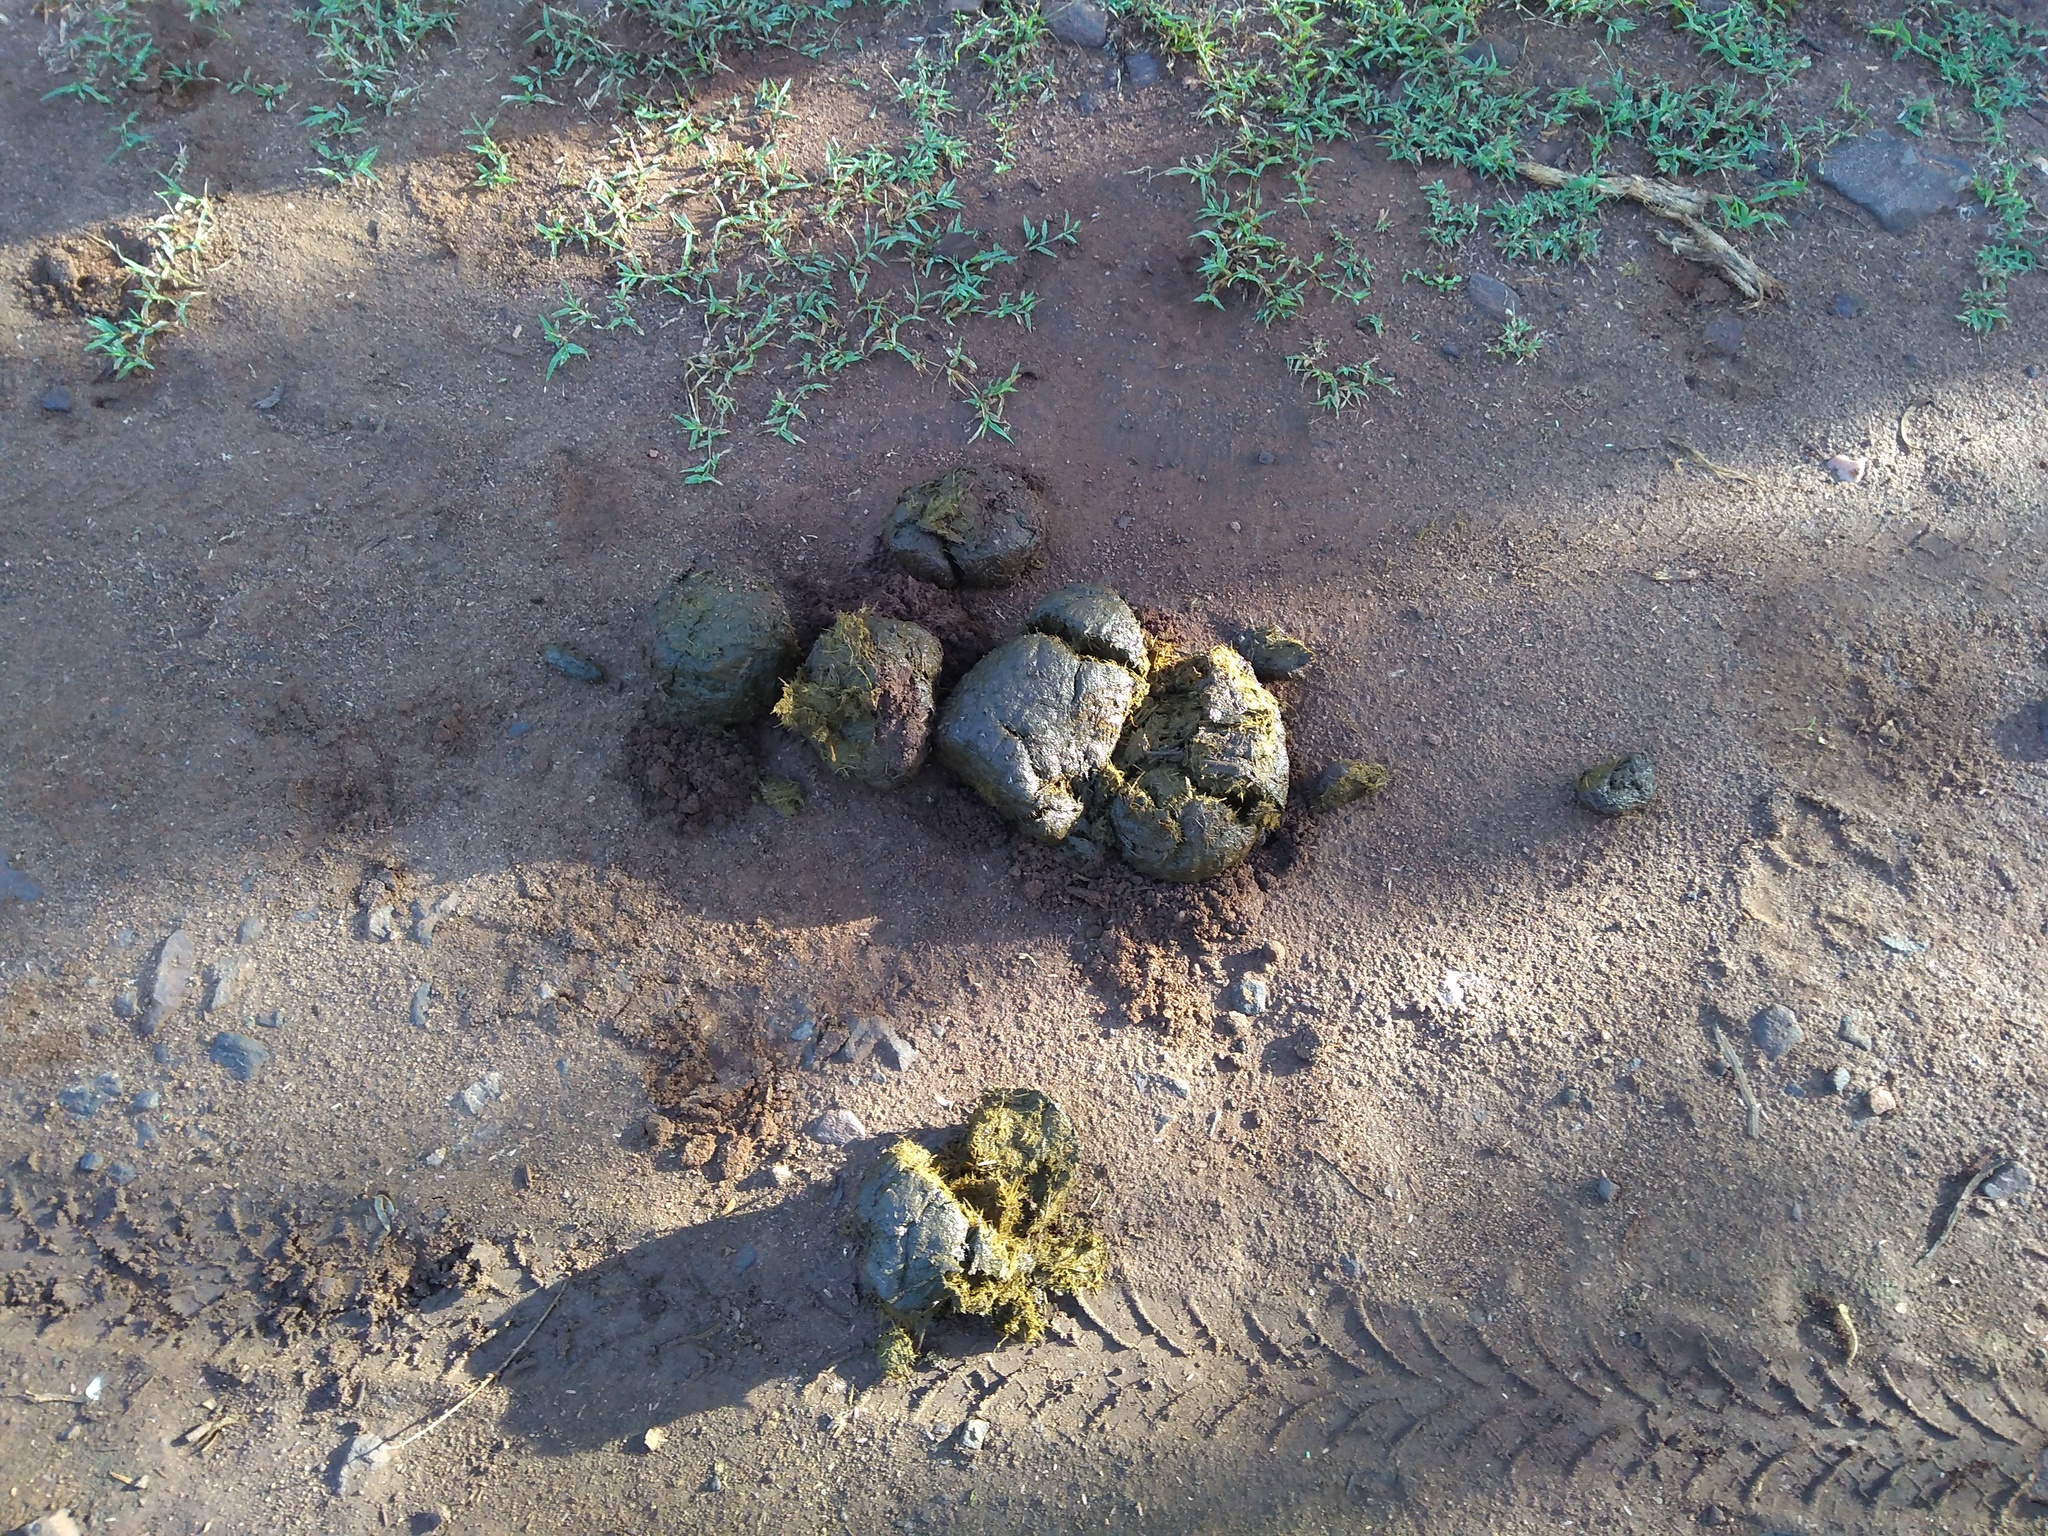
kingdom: Animalia
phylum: Chordata
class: Mammalia
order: Proboscidea
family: Elephantidae
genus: Elephas
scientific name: Elephas maximus
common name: Asian elephant
